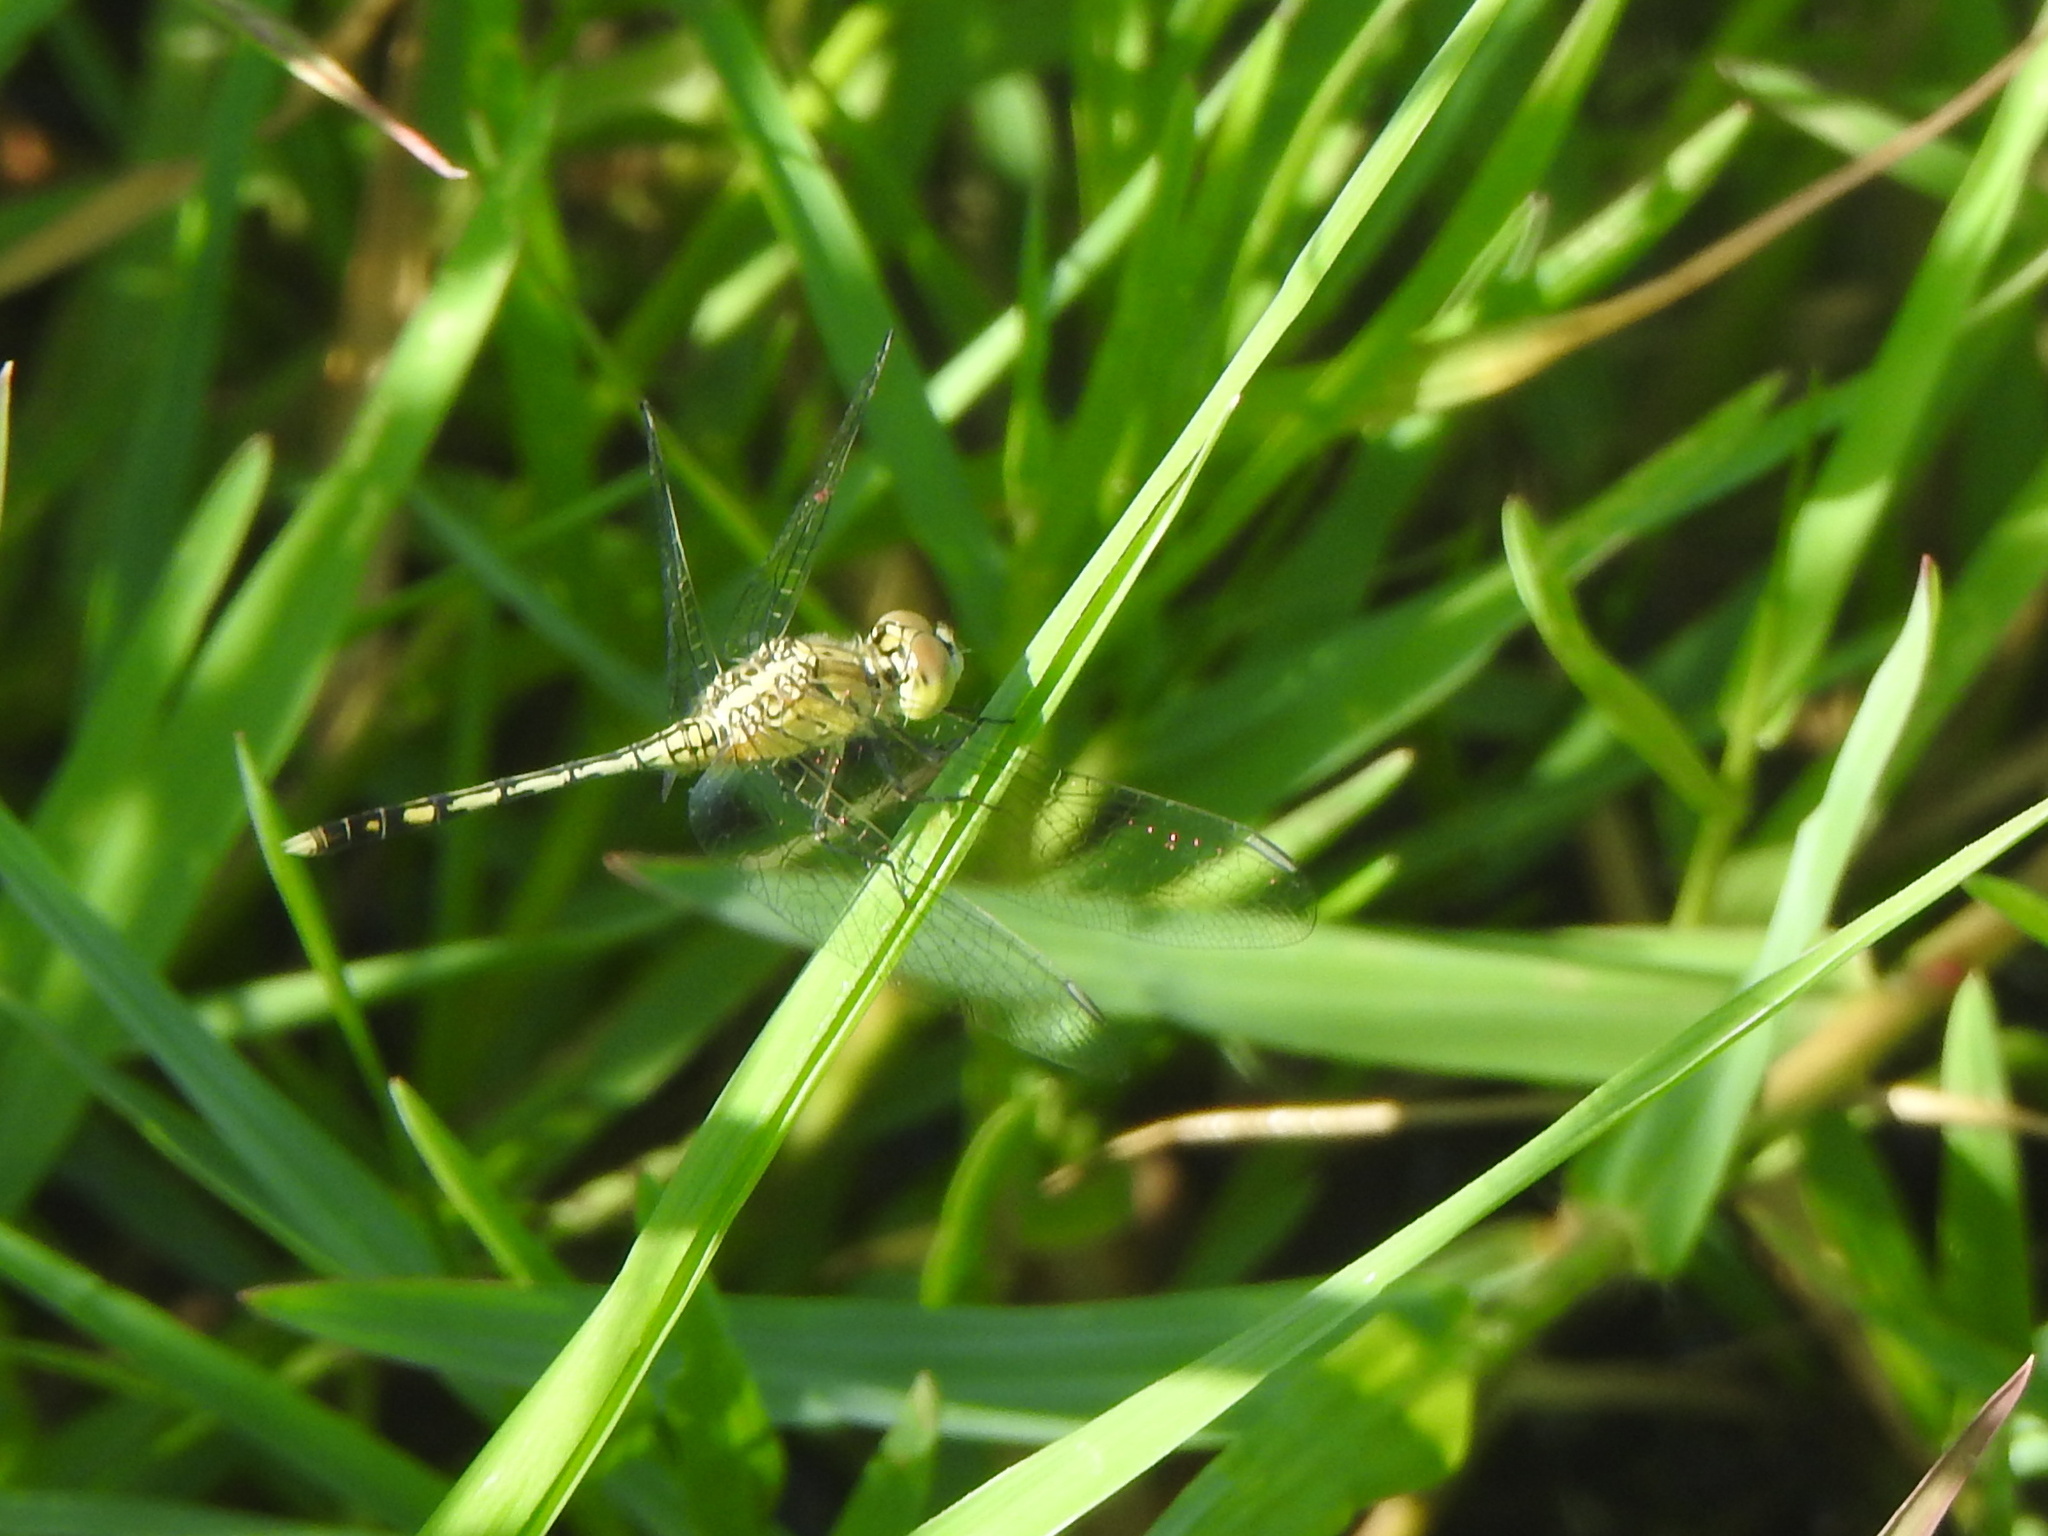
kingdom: Animalia
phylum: Arthropoda
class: Insecta
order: Odonata
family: Libellulidae
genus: Diplacodes
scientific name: Diplacodes trivialis
